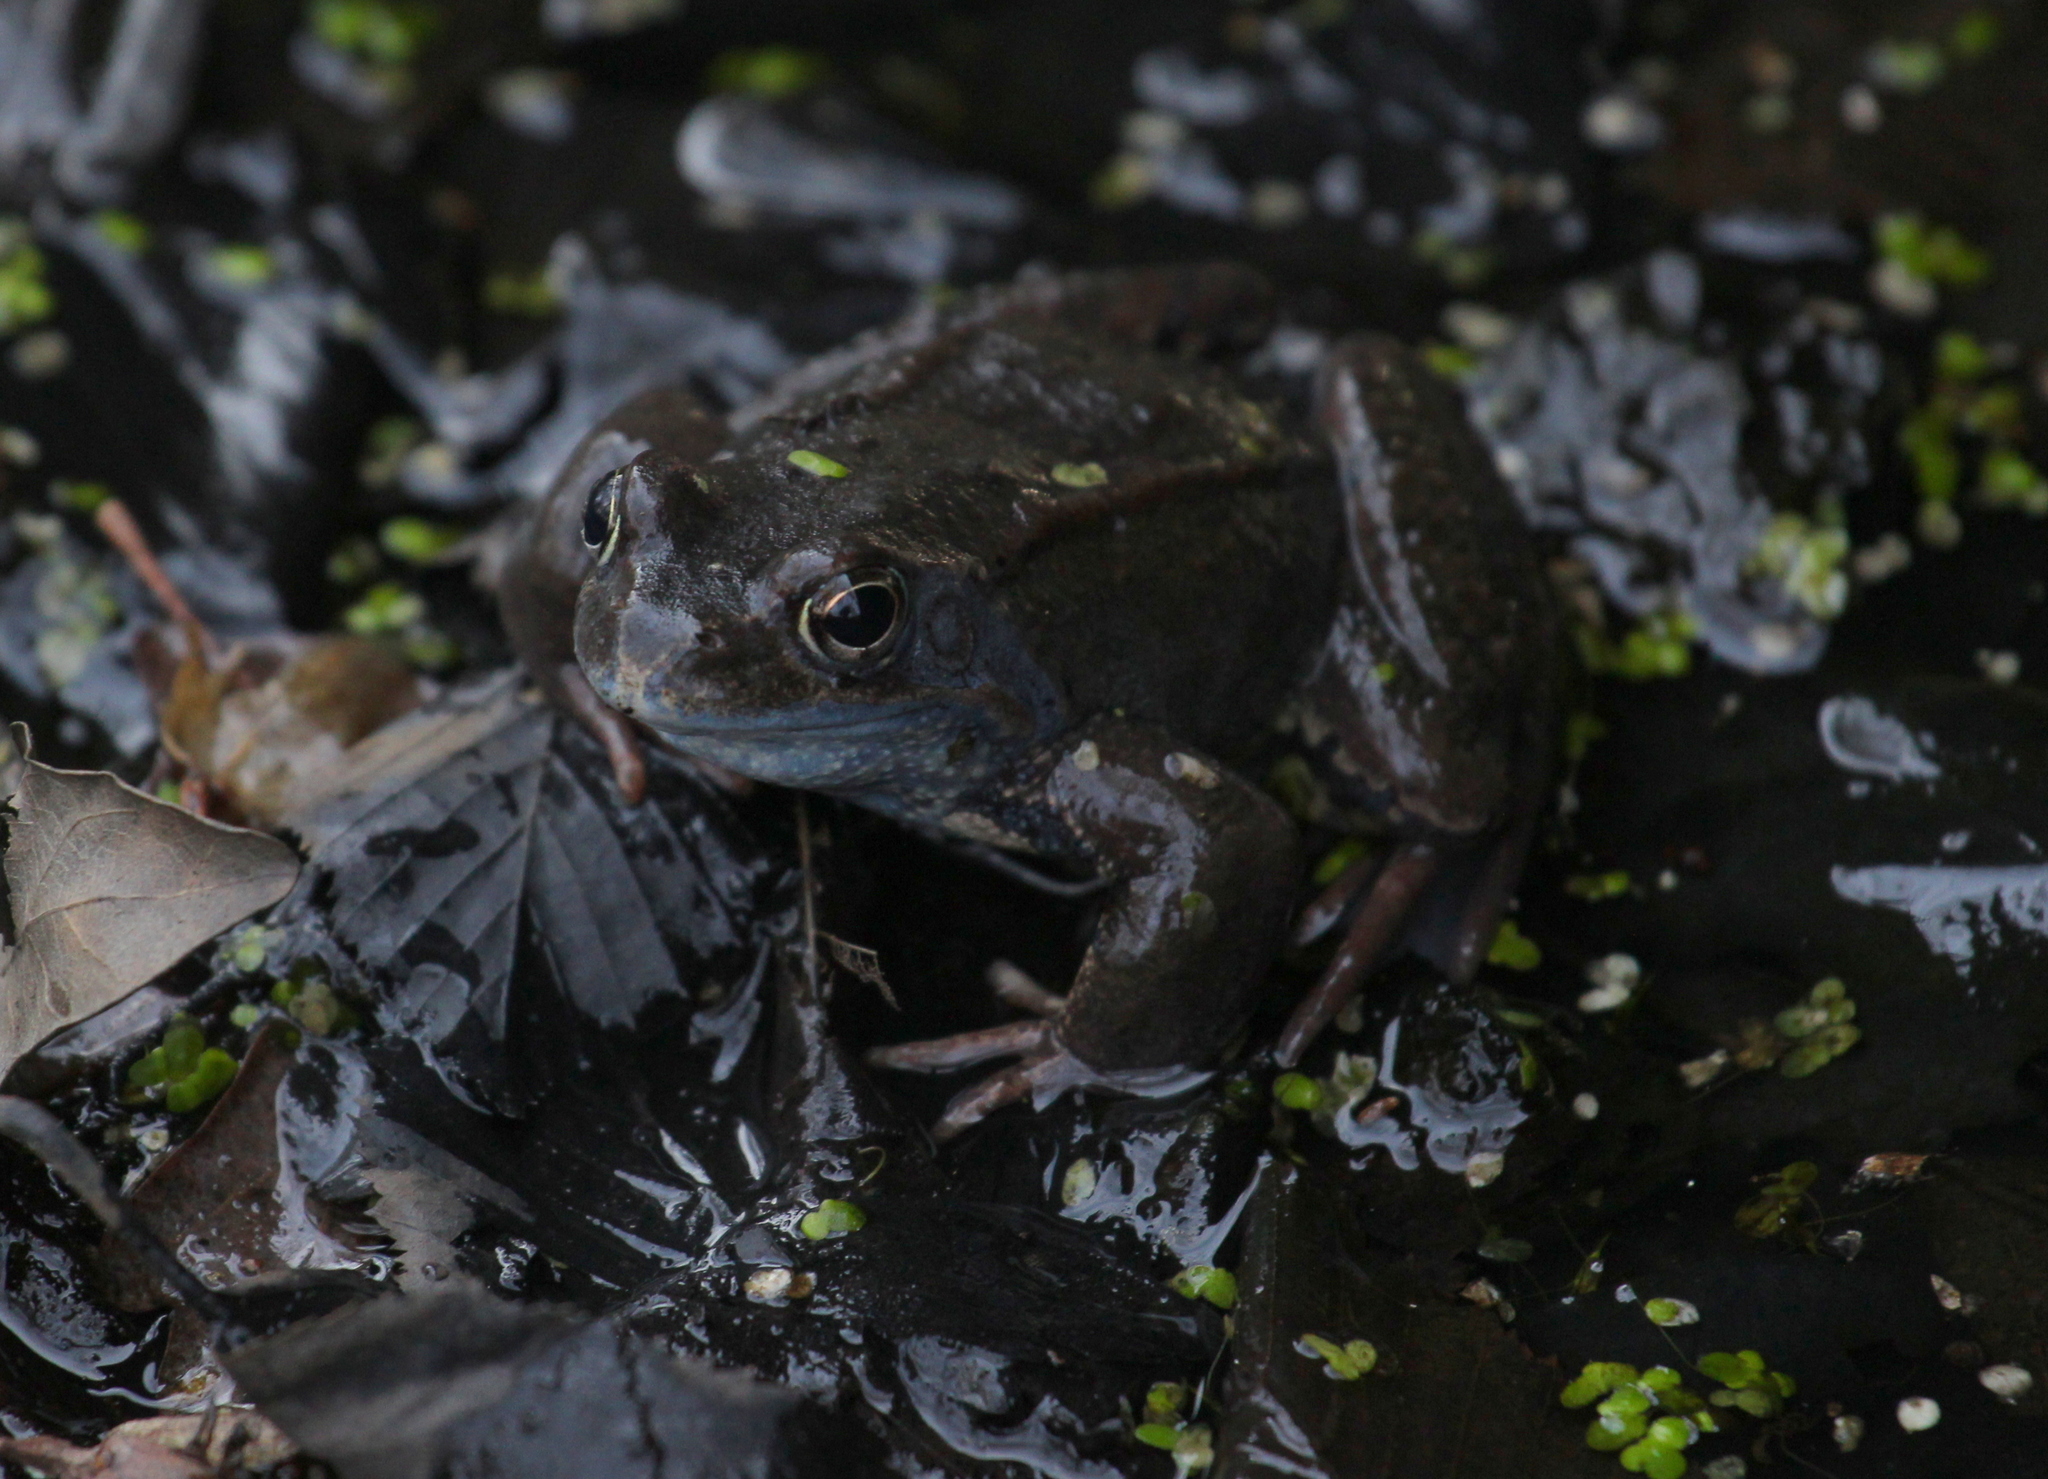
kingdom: Animalia
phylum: Chordata
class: Amphibia
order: Anura
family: Ranidae
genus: Rana
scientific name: Rana temporaria
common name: Common frog
